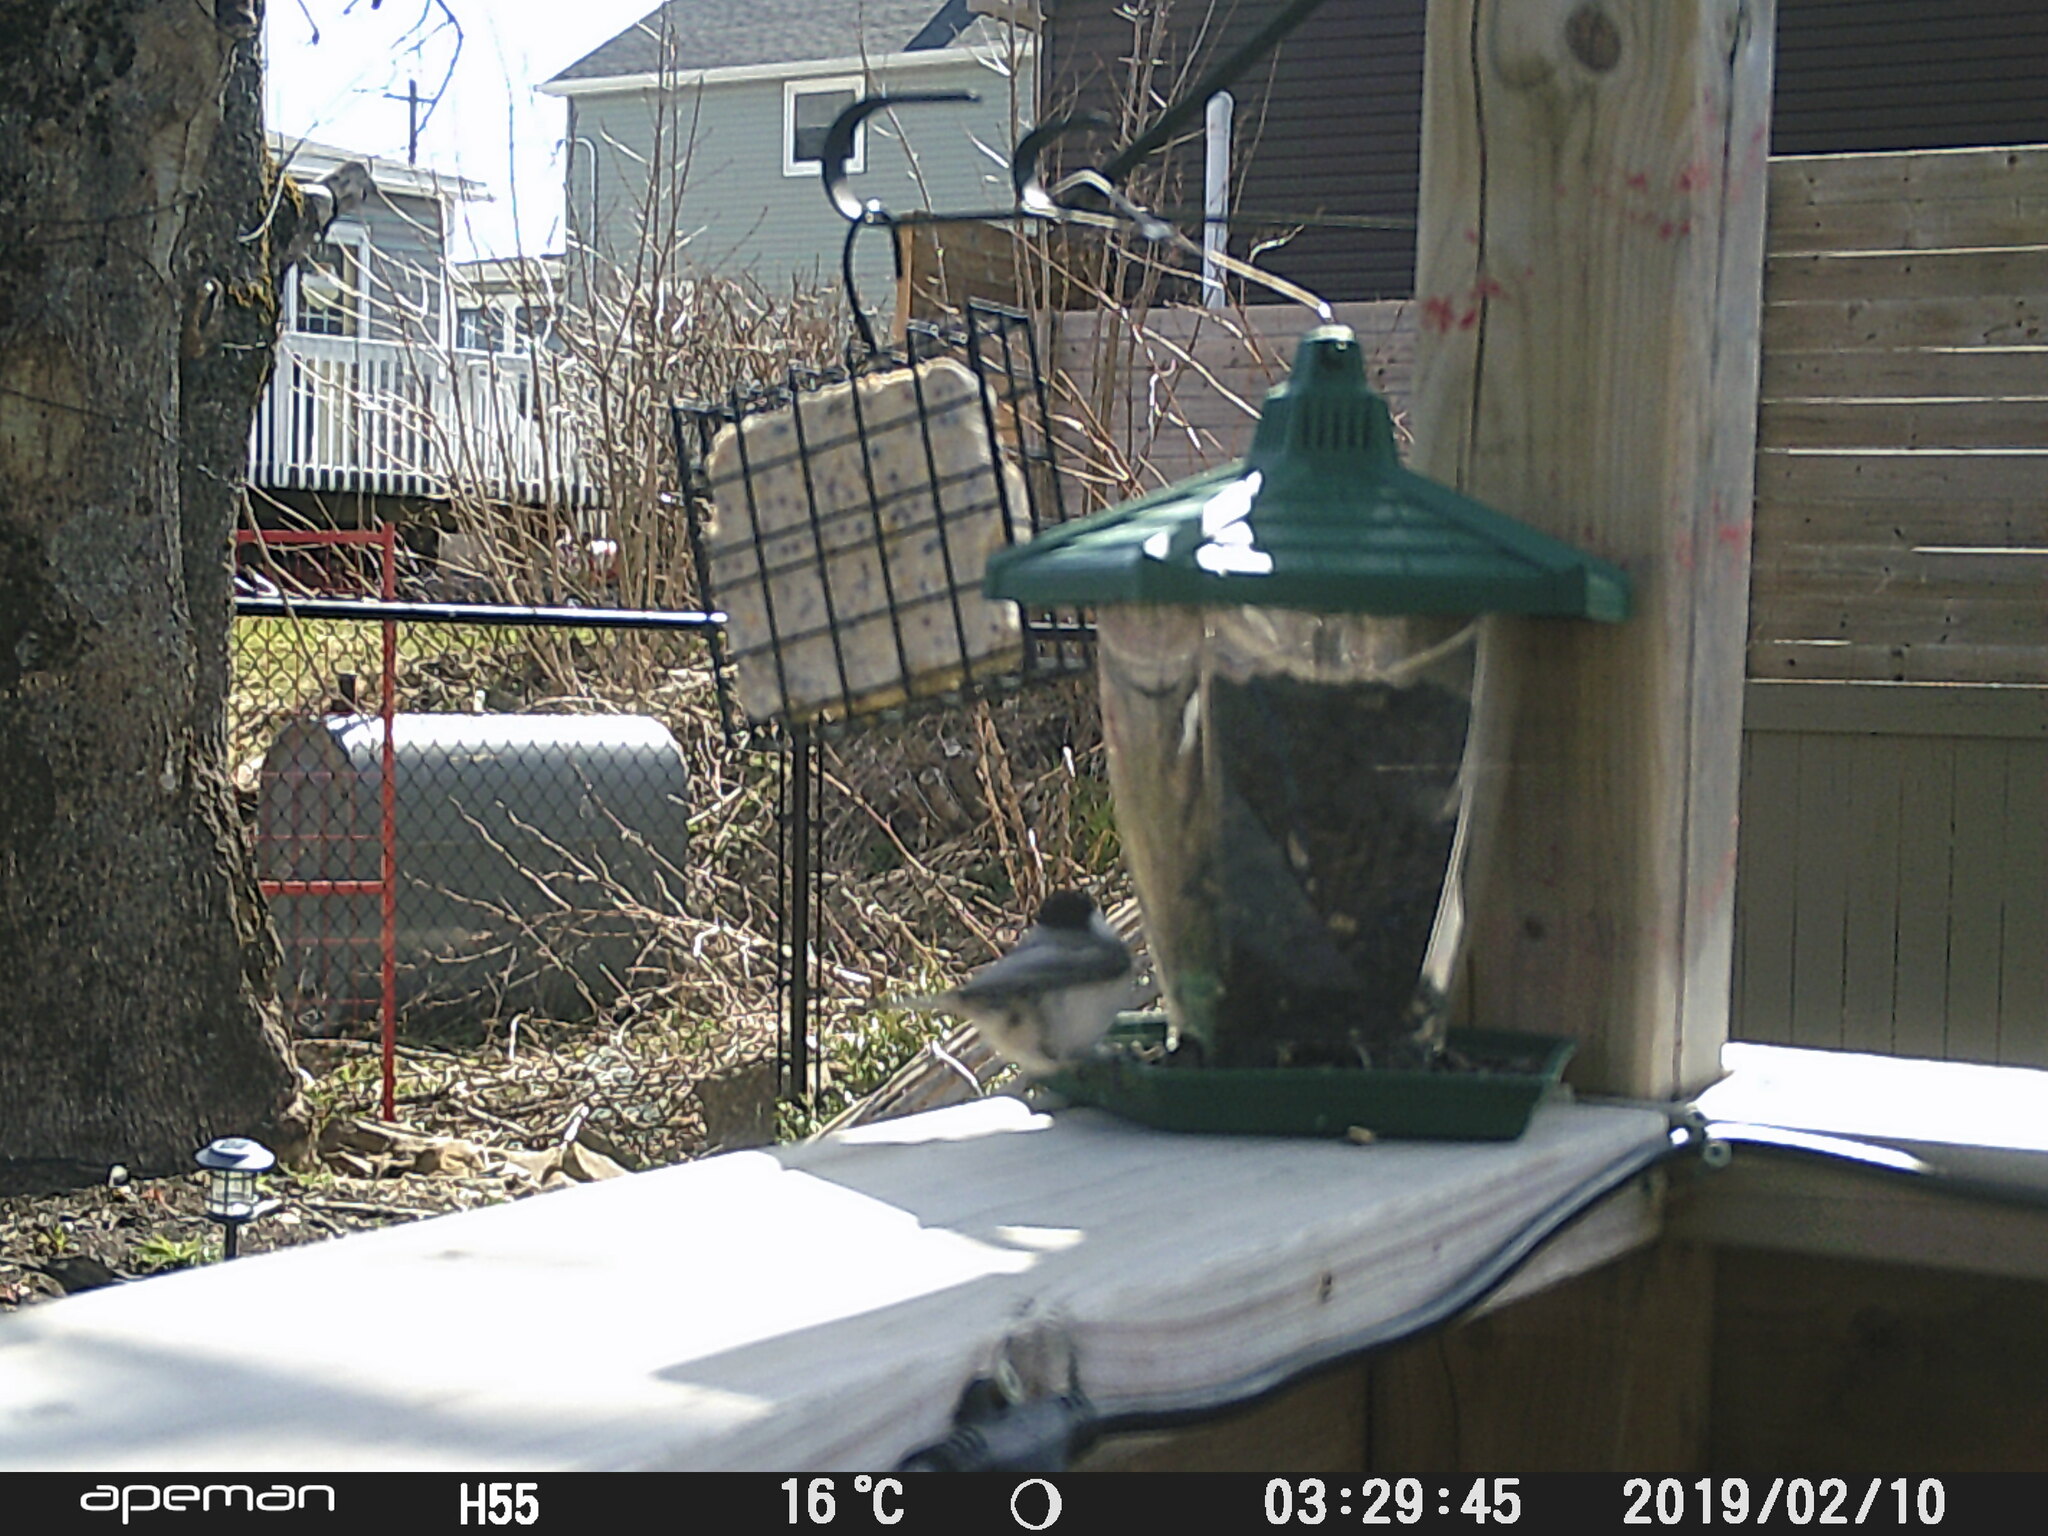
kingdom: Animalia
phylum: Chordata
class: Aves
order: Passeriformes
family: Paridae
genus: Poecile
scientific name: Poecile atricapillus
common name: Black-capped chickadee
